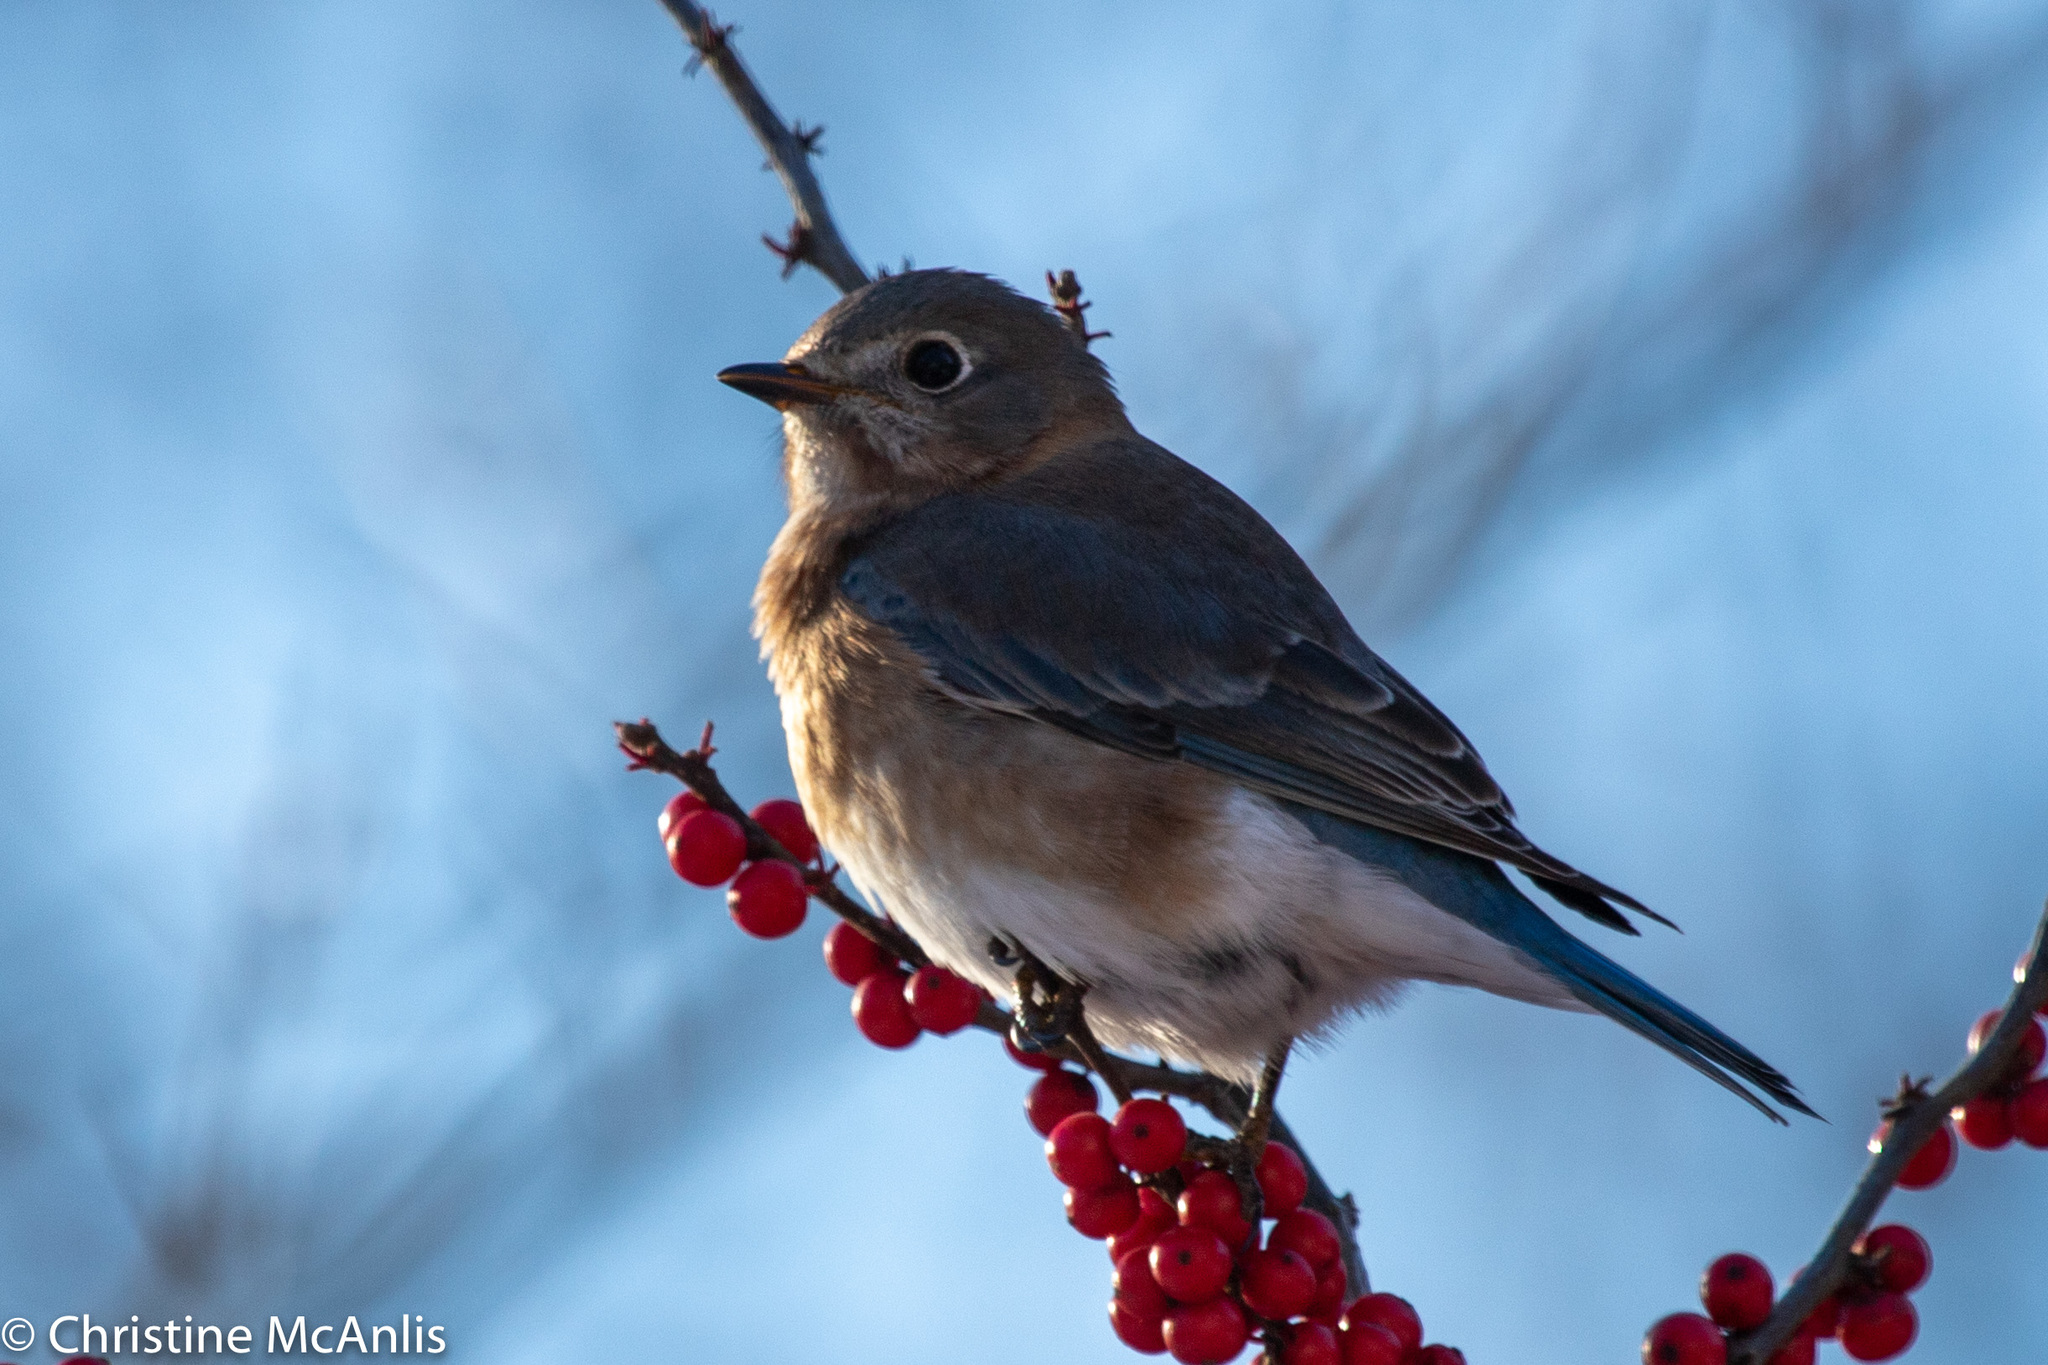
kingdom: Animalia
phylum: Chordata
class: Aves
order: Passeriformes
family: Turdidae
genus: Sialia
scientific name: Sialia sialis
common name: Eastern bluebird
